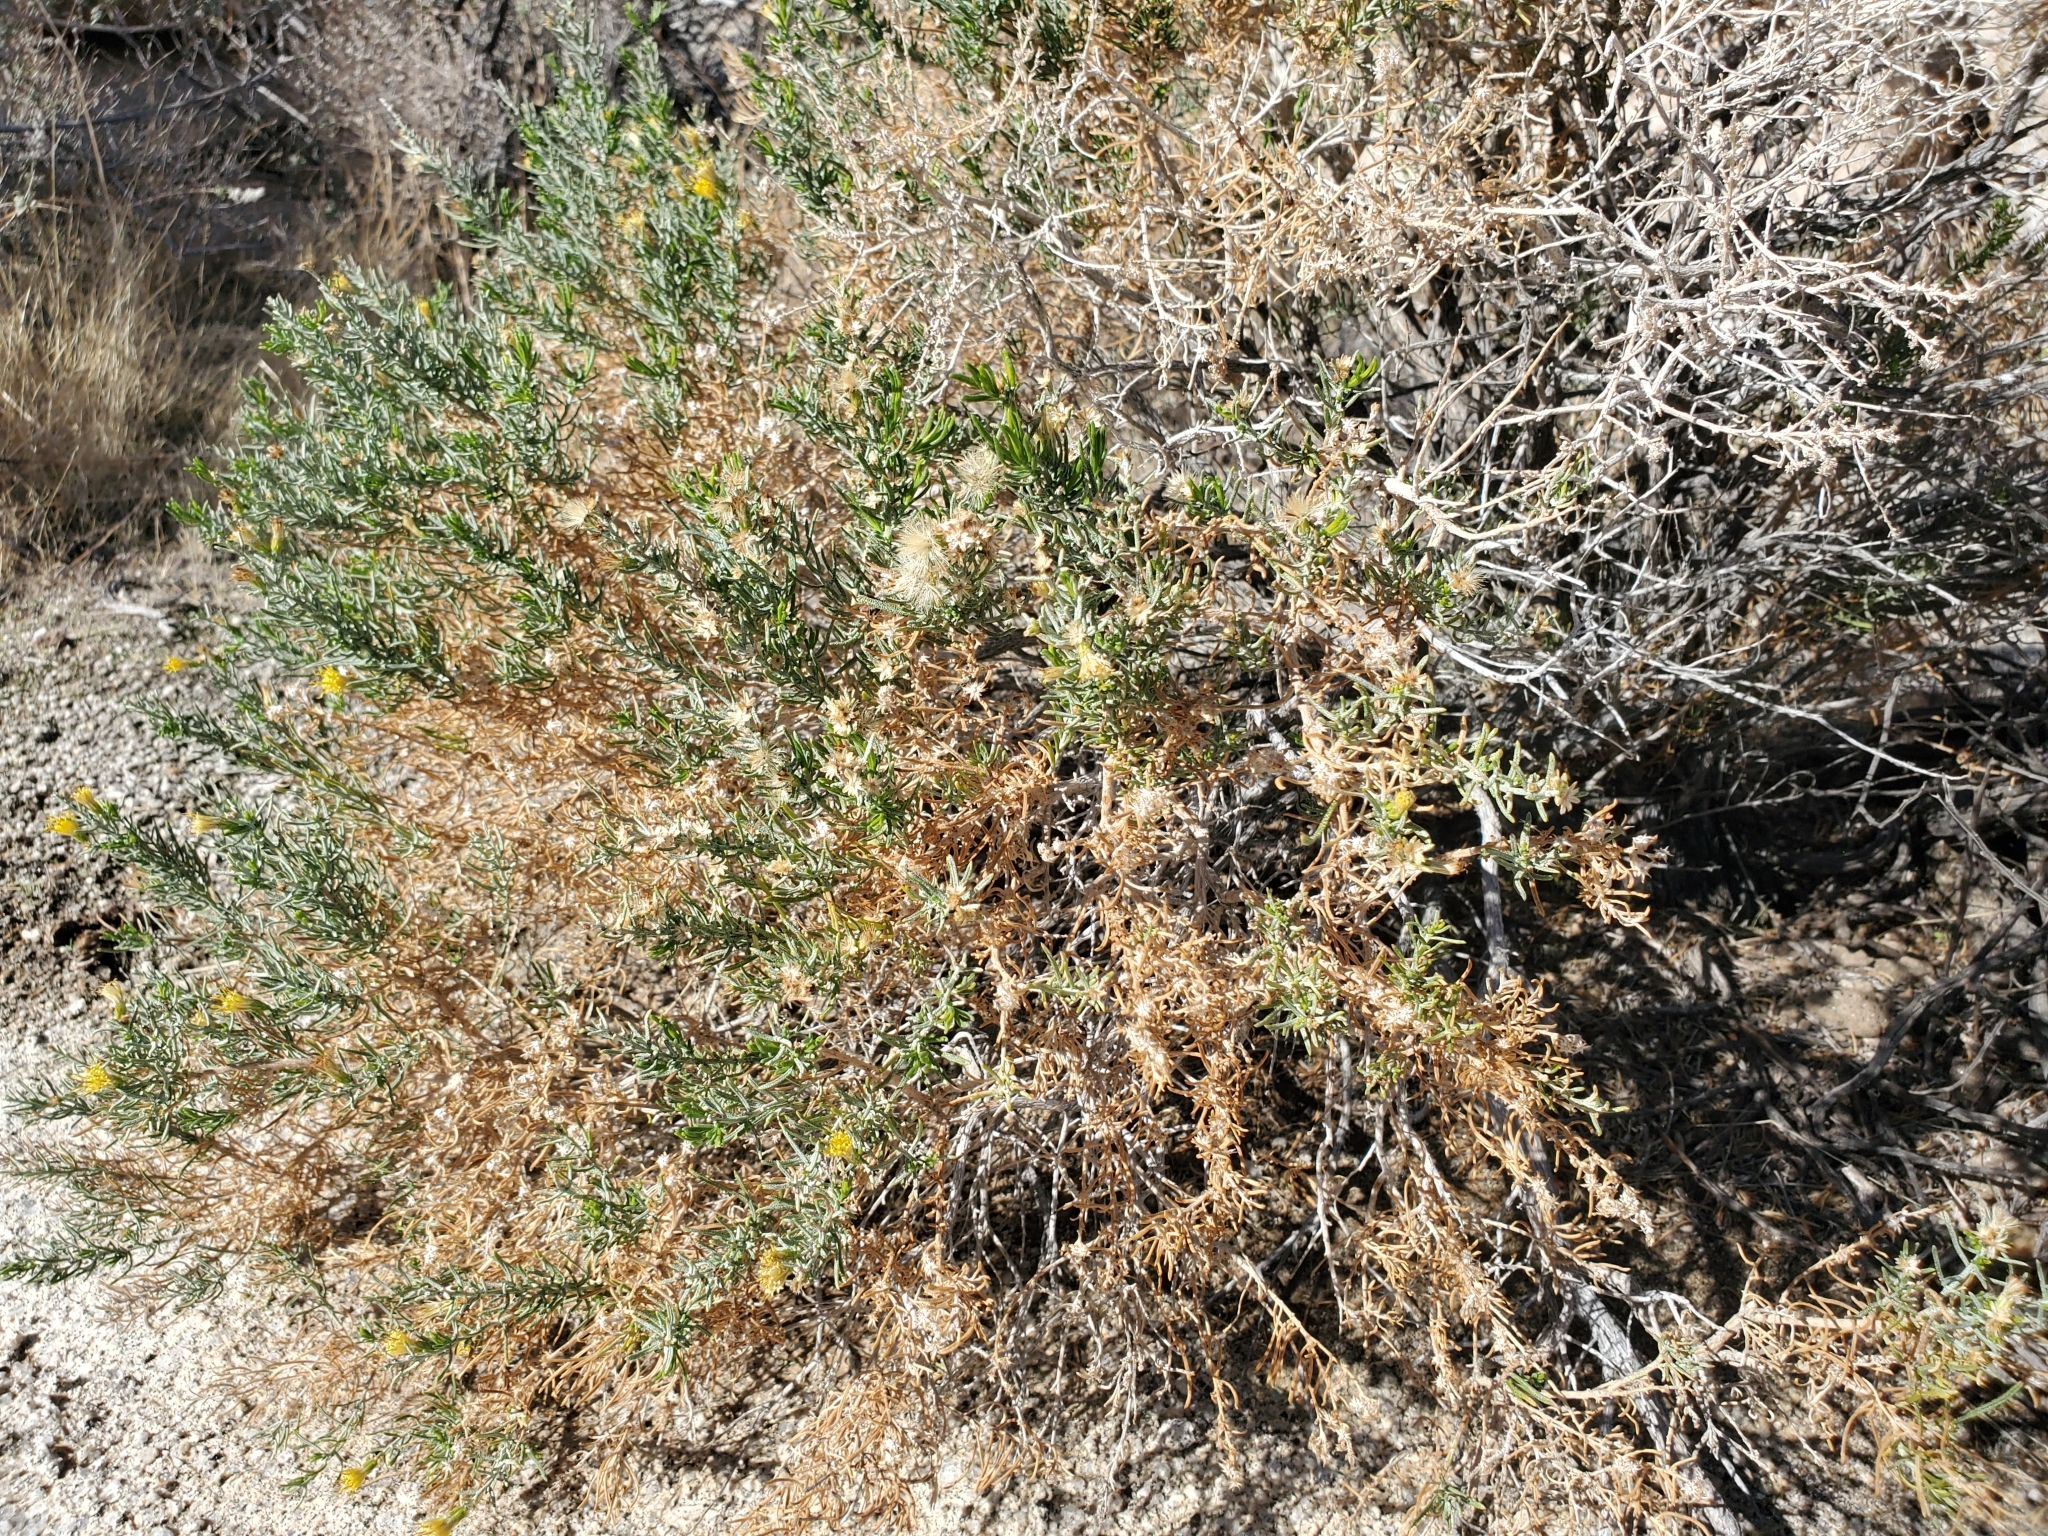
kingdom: Plantae
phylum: Tracheophyta
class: Magnoliopsida
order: Asterales
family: Asteraceae
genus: Ericameria
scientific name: Ericameria brachylepis
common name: Boundary goldenbush
